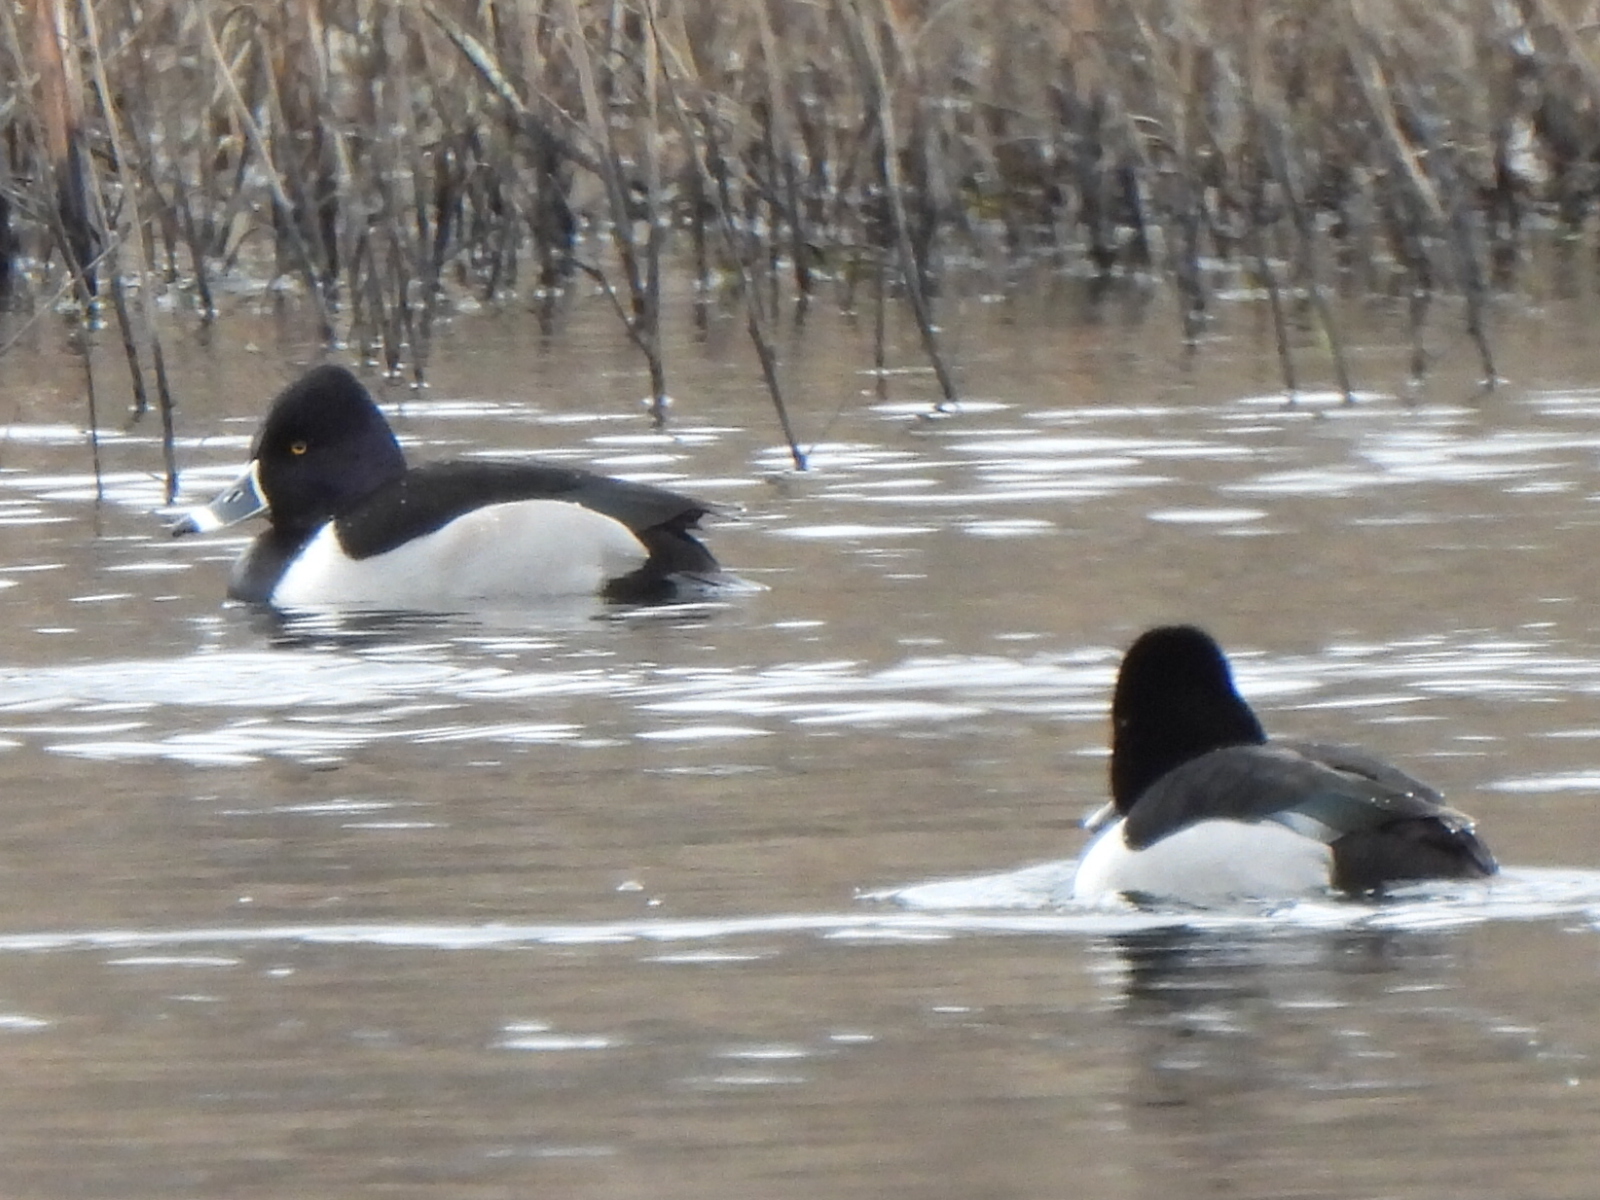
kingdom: Animalia
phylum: Chordata
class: Aves
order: Anseriformes
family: Anatidae
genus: Aythya
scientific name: Aythya collaris
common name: Ring-necked duck
